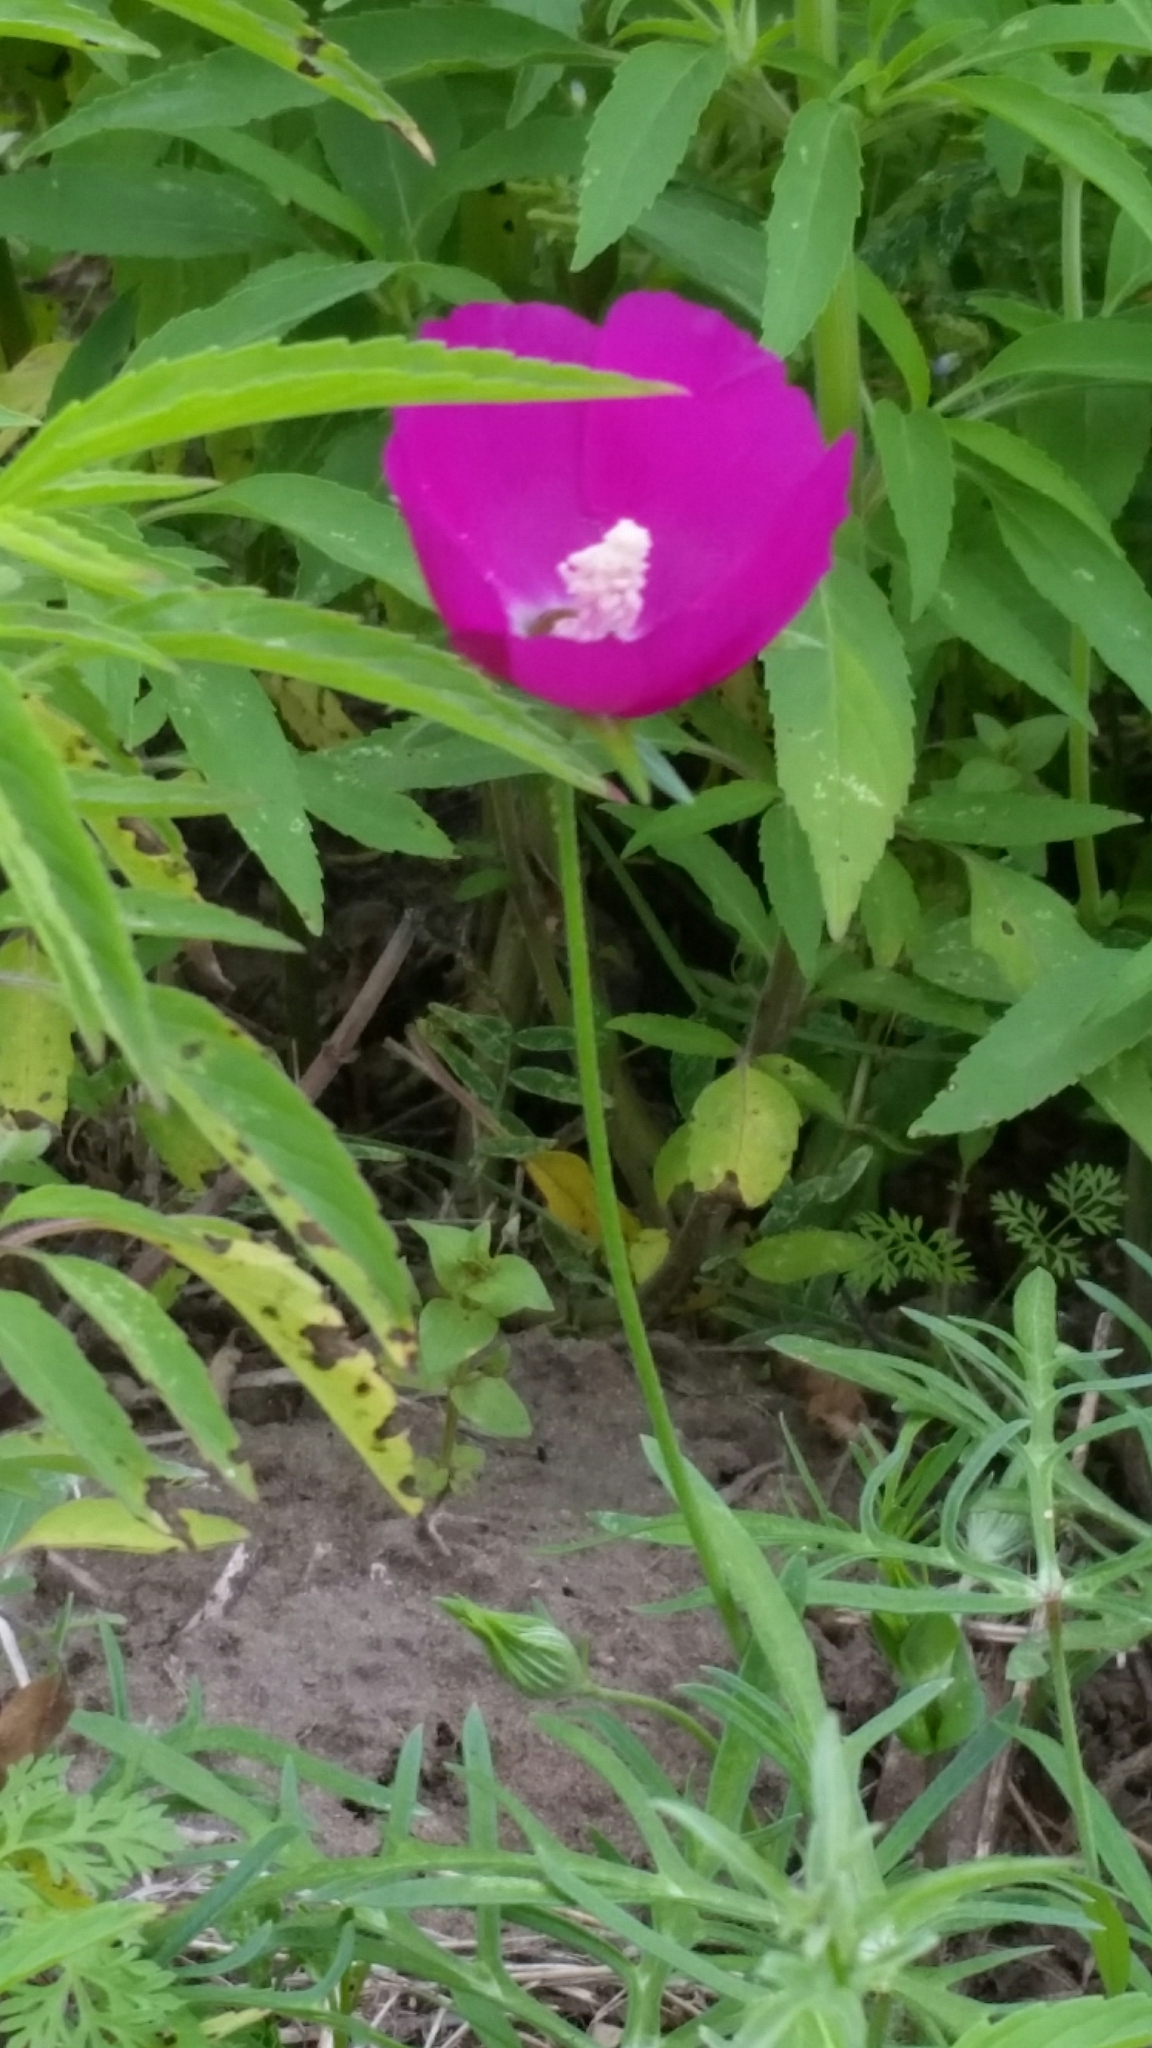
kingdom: Plantae
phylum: Tracheophyta
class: Magnoliopsida
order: Malvales
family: Malvaceae
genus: Callirhoe
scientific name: Callirhoe involucrata
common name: Purple poppy-mallow
